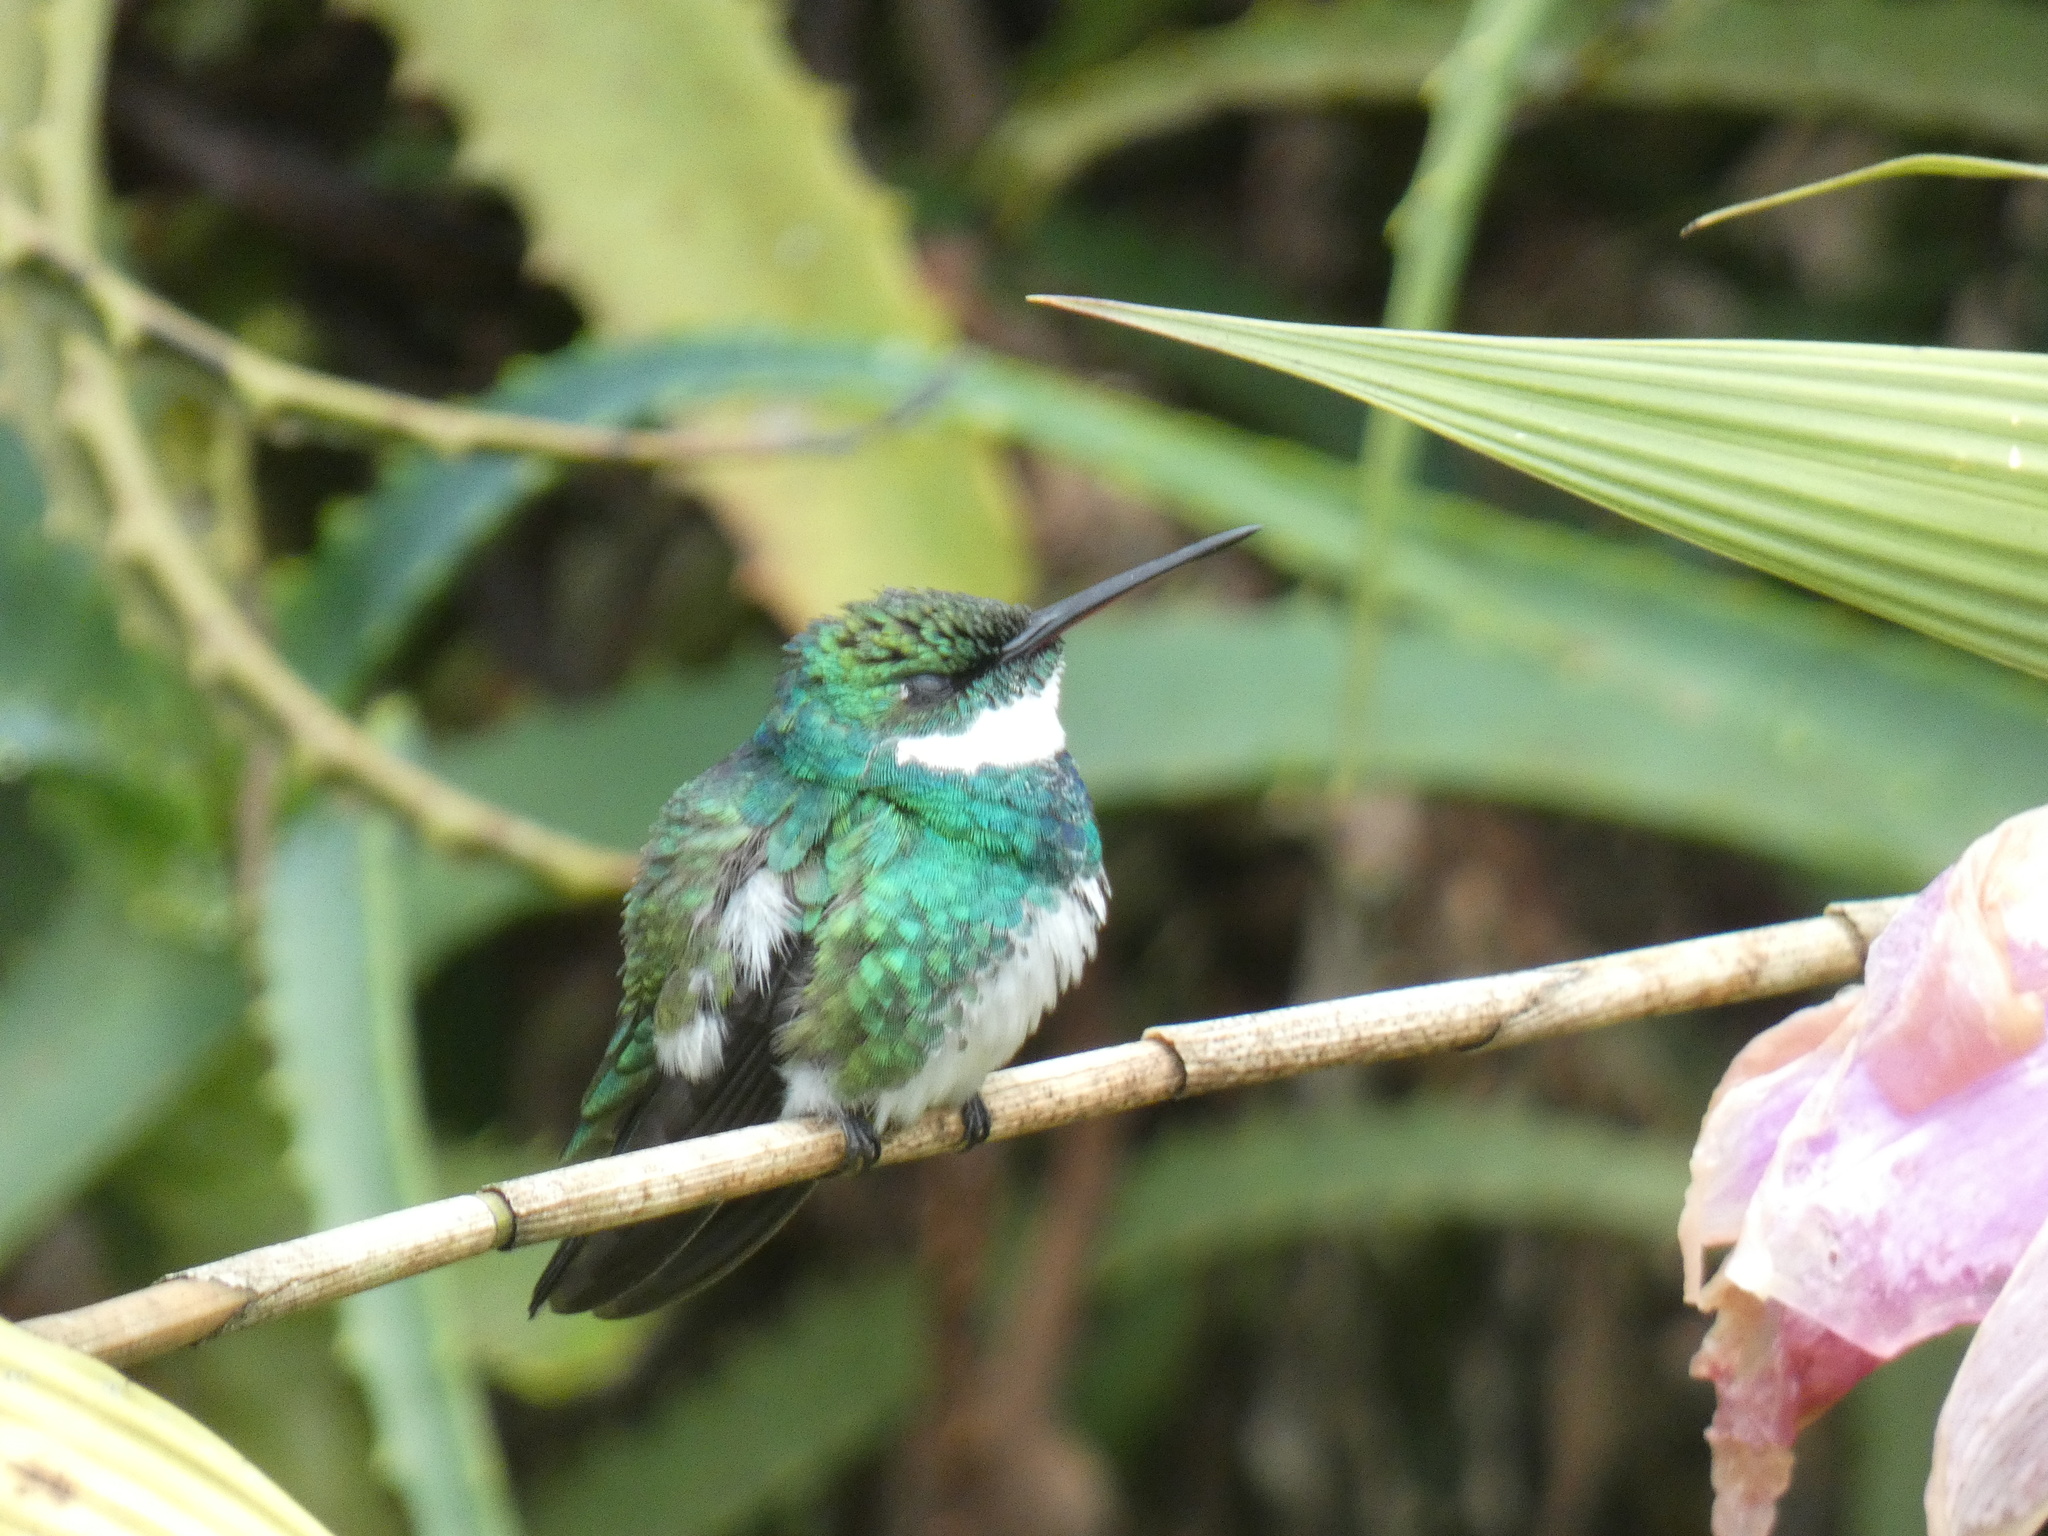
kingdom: Animalia
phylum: Chordata
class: Aves
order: Apodiformes
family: Trochilidae
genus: Leucochloris
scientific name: Leucochloris albicollis
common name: White-throated hummingbird
